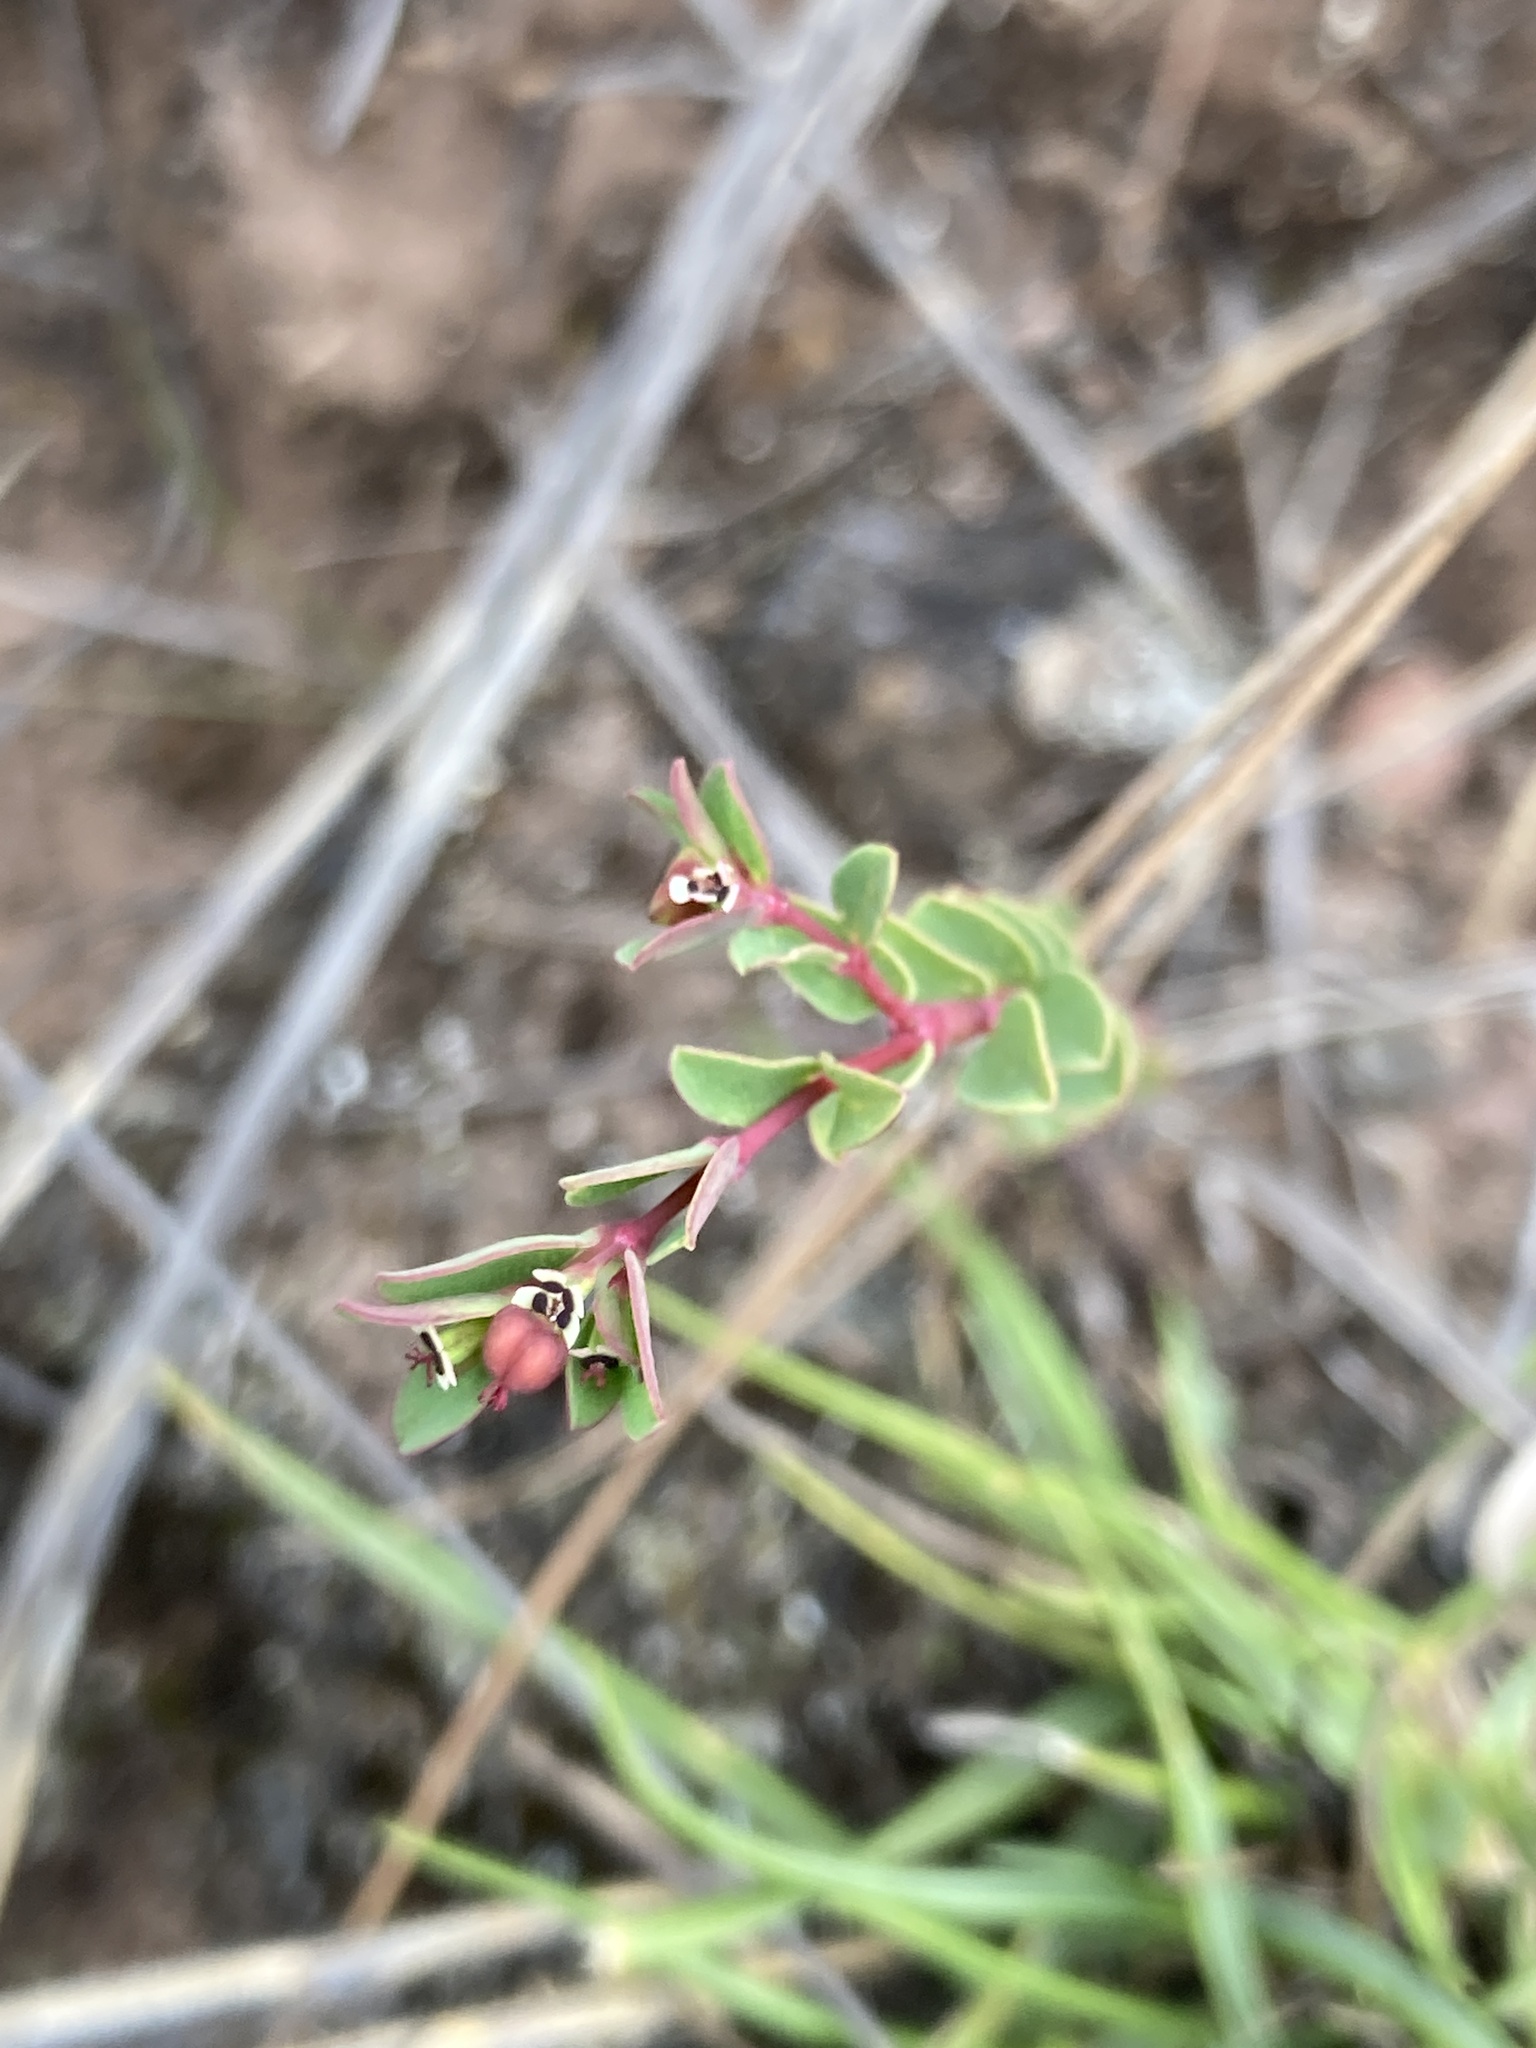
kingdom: Plantae
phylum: Tracheophyta
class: Magnoliopsida
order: Malpighiales
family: Euphorbiaceae
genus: Euphorbia
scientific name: Euphorbia orbiculata
